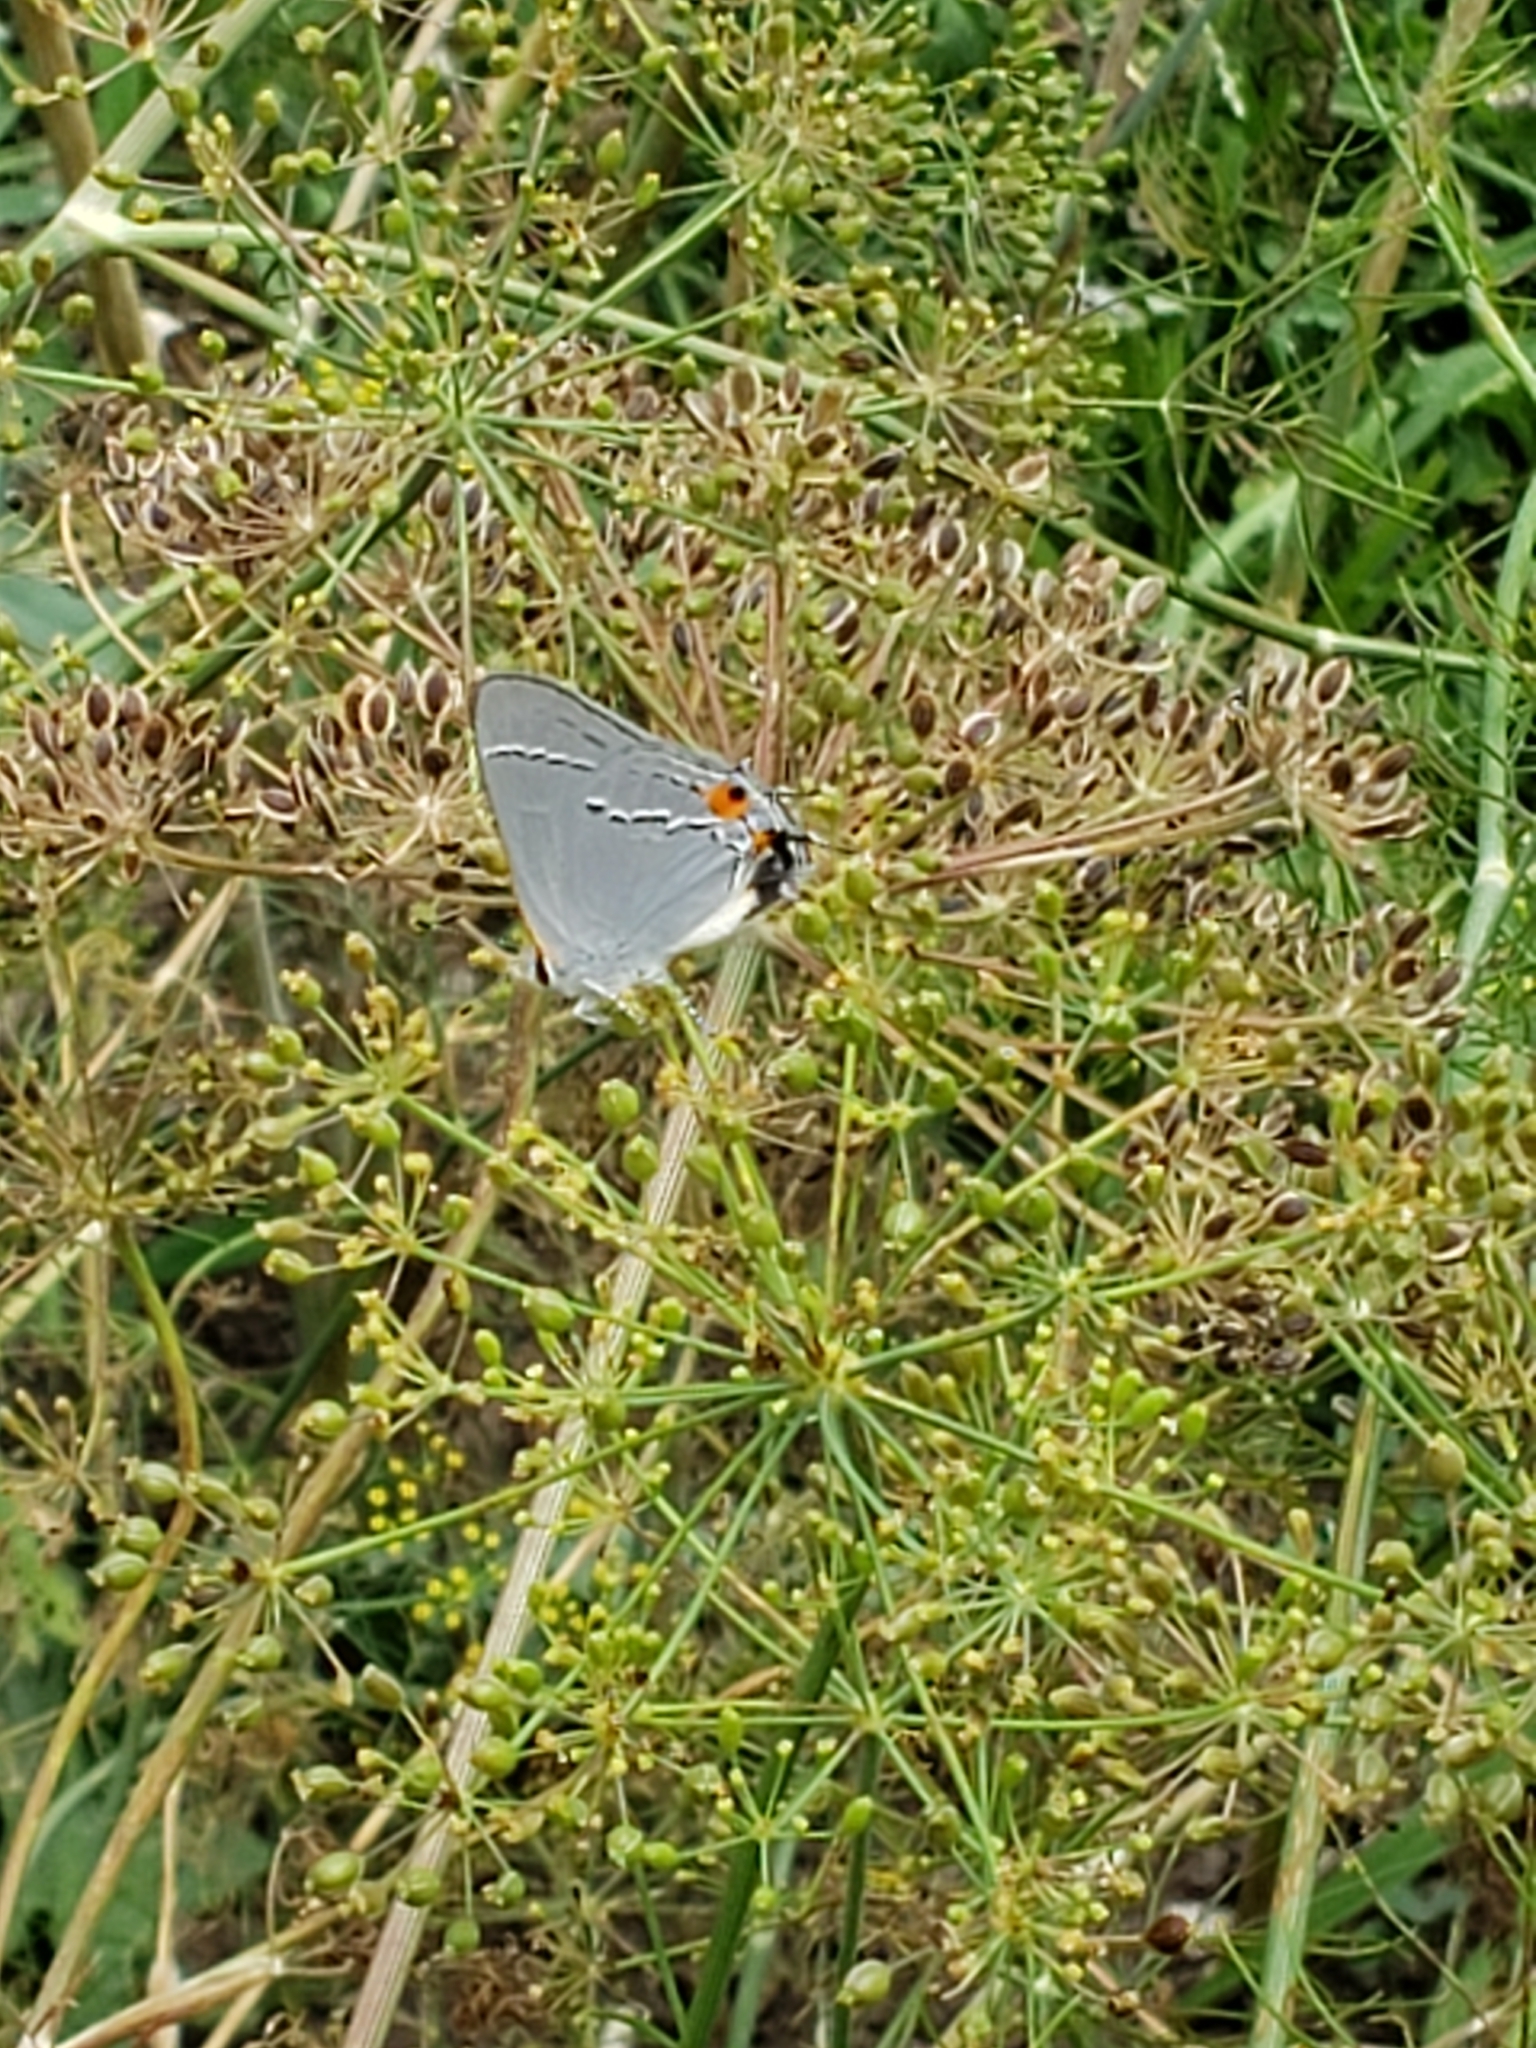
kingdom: Animalia
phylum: Arthropoda
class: Insecta
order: Lepidoptera
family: Lycaenidae
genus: Strymon
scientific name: Strymon melinus
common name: Gray hairstreak
